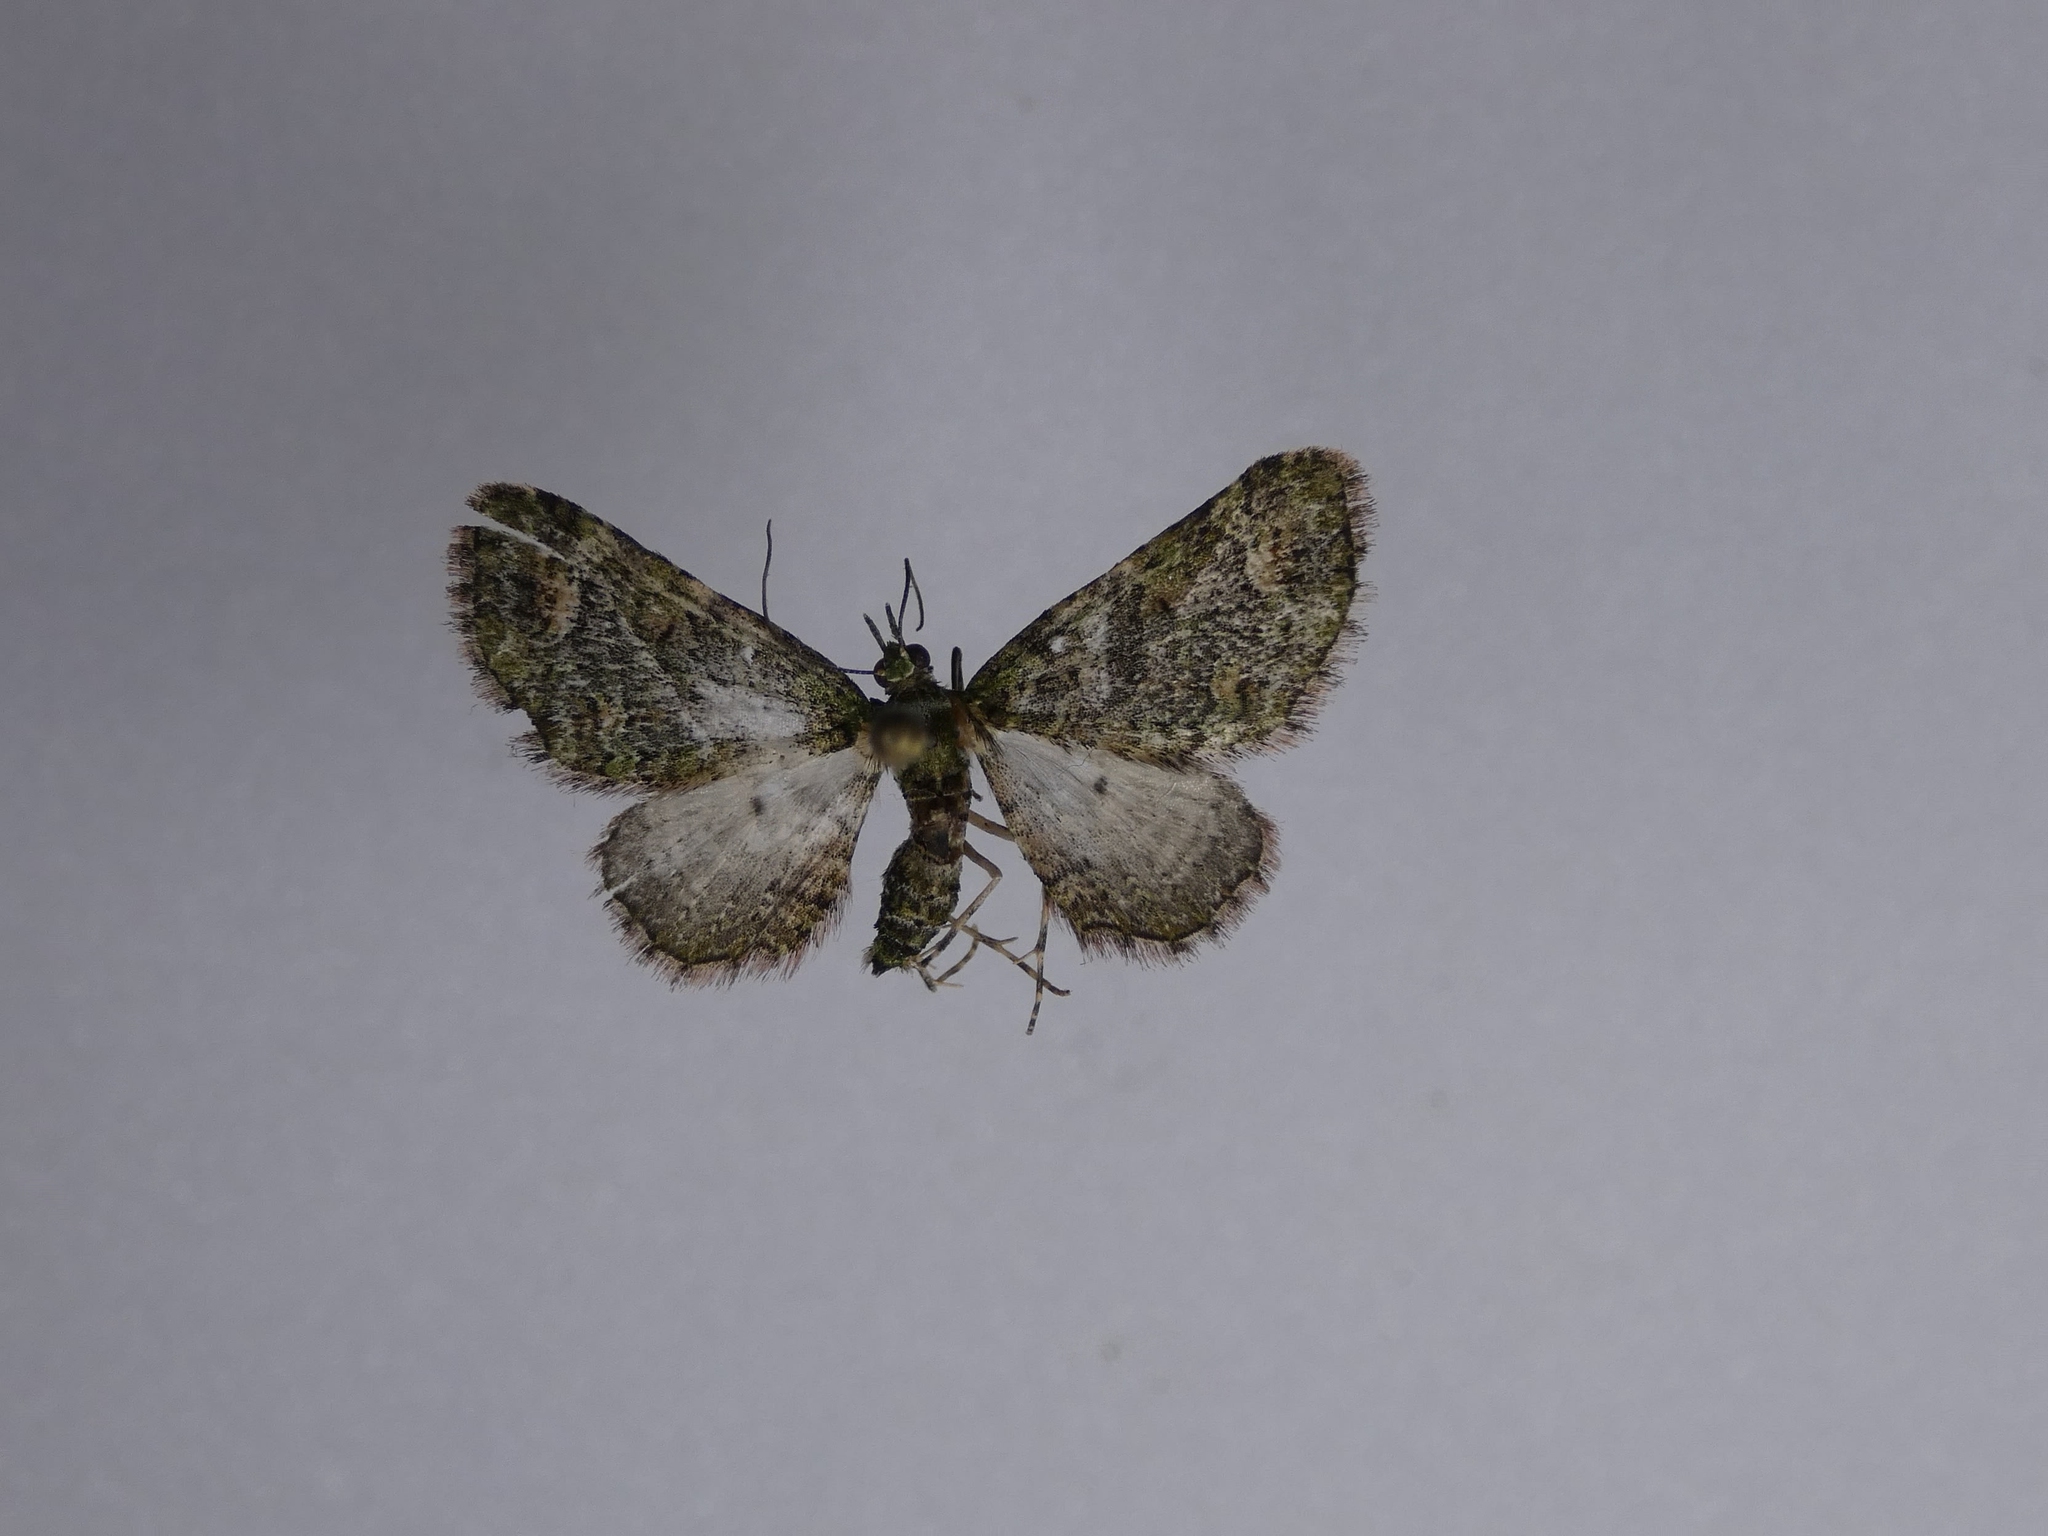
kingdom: Animalia
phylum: Arthropoda
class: Insecta
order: Lepidoptera
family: Geometridae
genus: Idaea
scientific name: Idaea mutanda
